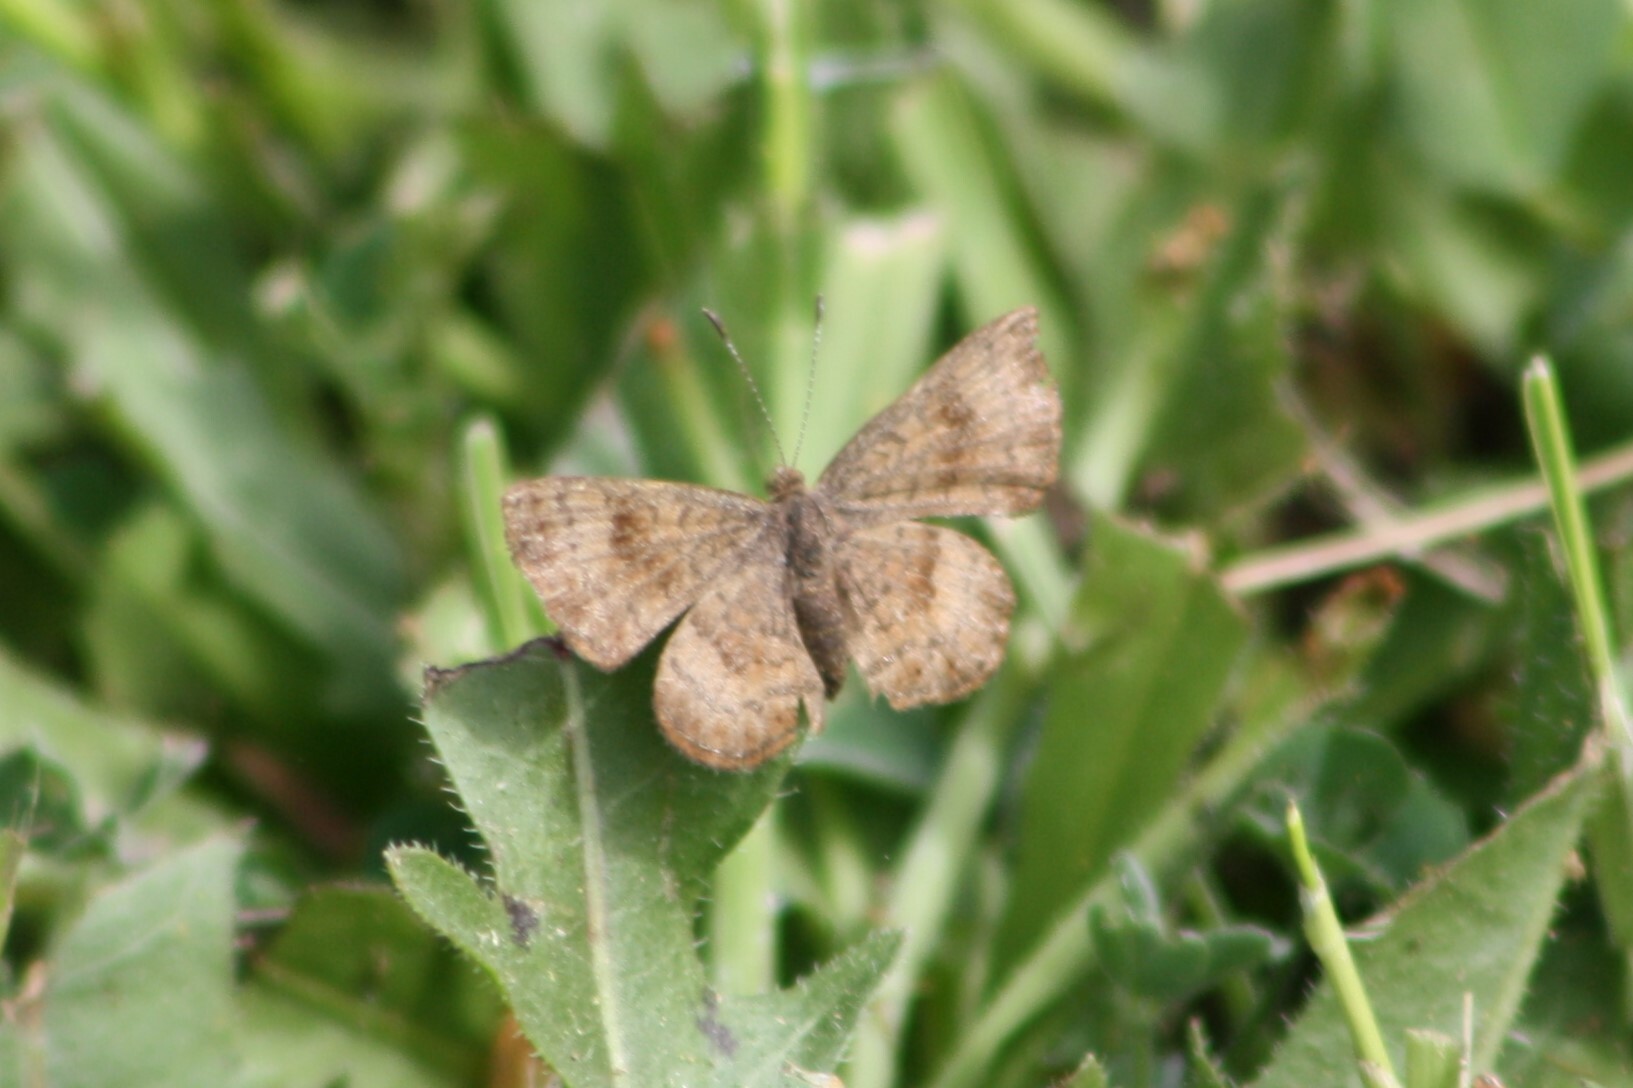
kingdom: Animalia
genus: Calephelis
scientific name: Calephelis nemesis
